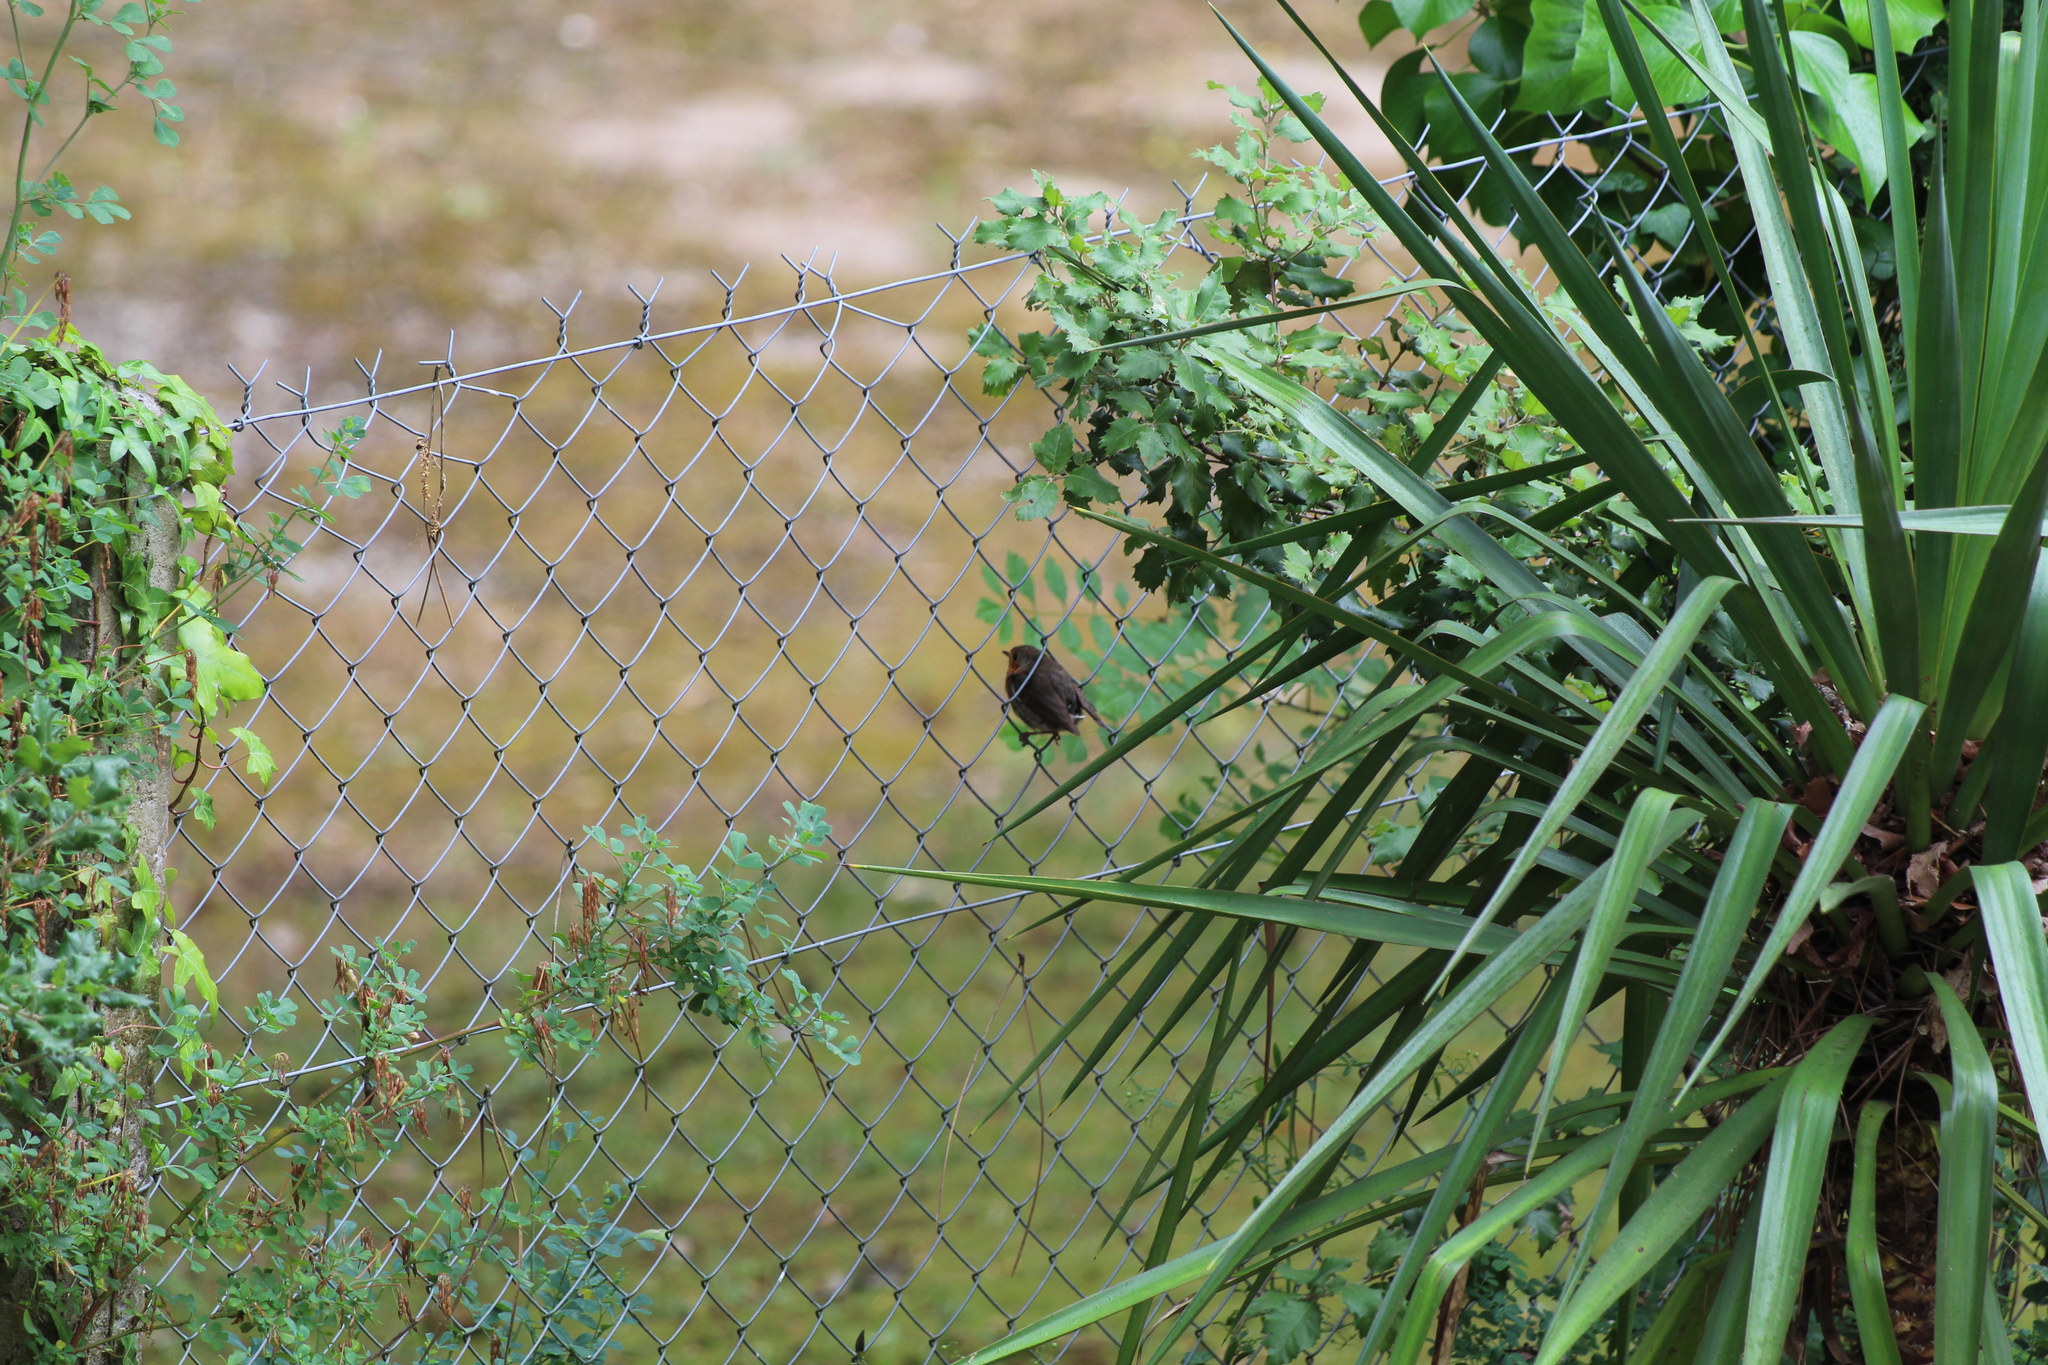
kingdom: Animalia
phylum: Chordata
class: Aves
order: Passeriformes
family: Muscicapidae
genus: Erithacus
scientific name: Erithacus rubecula
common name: European robin
